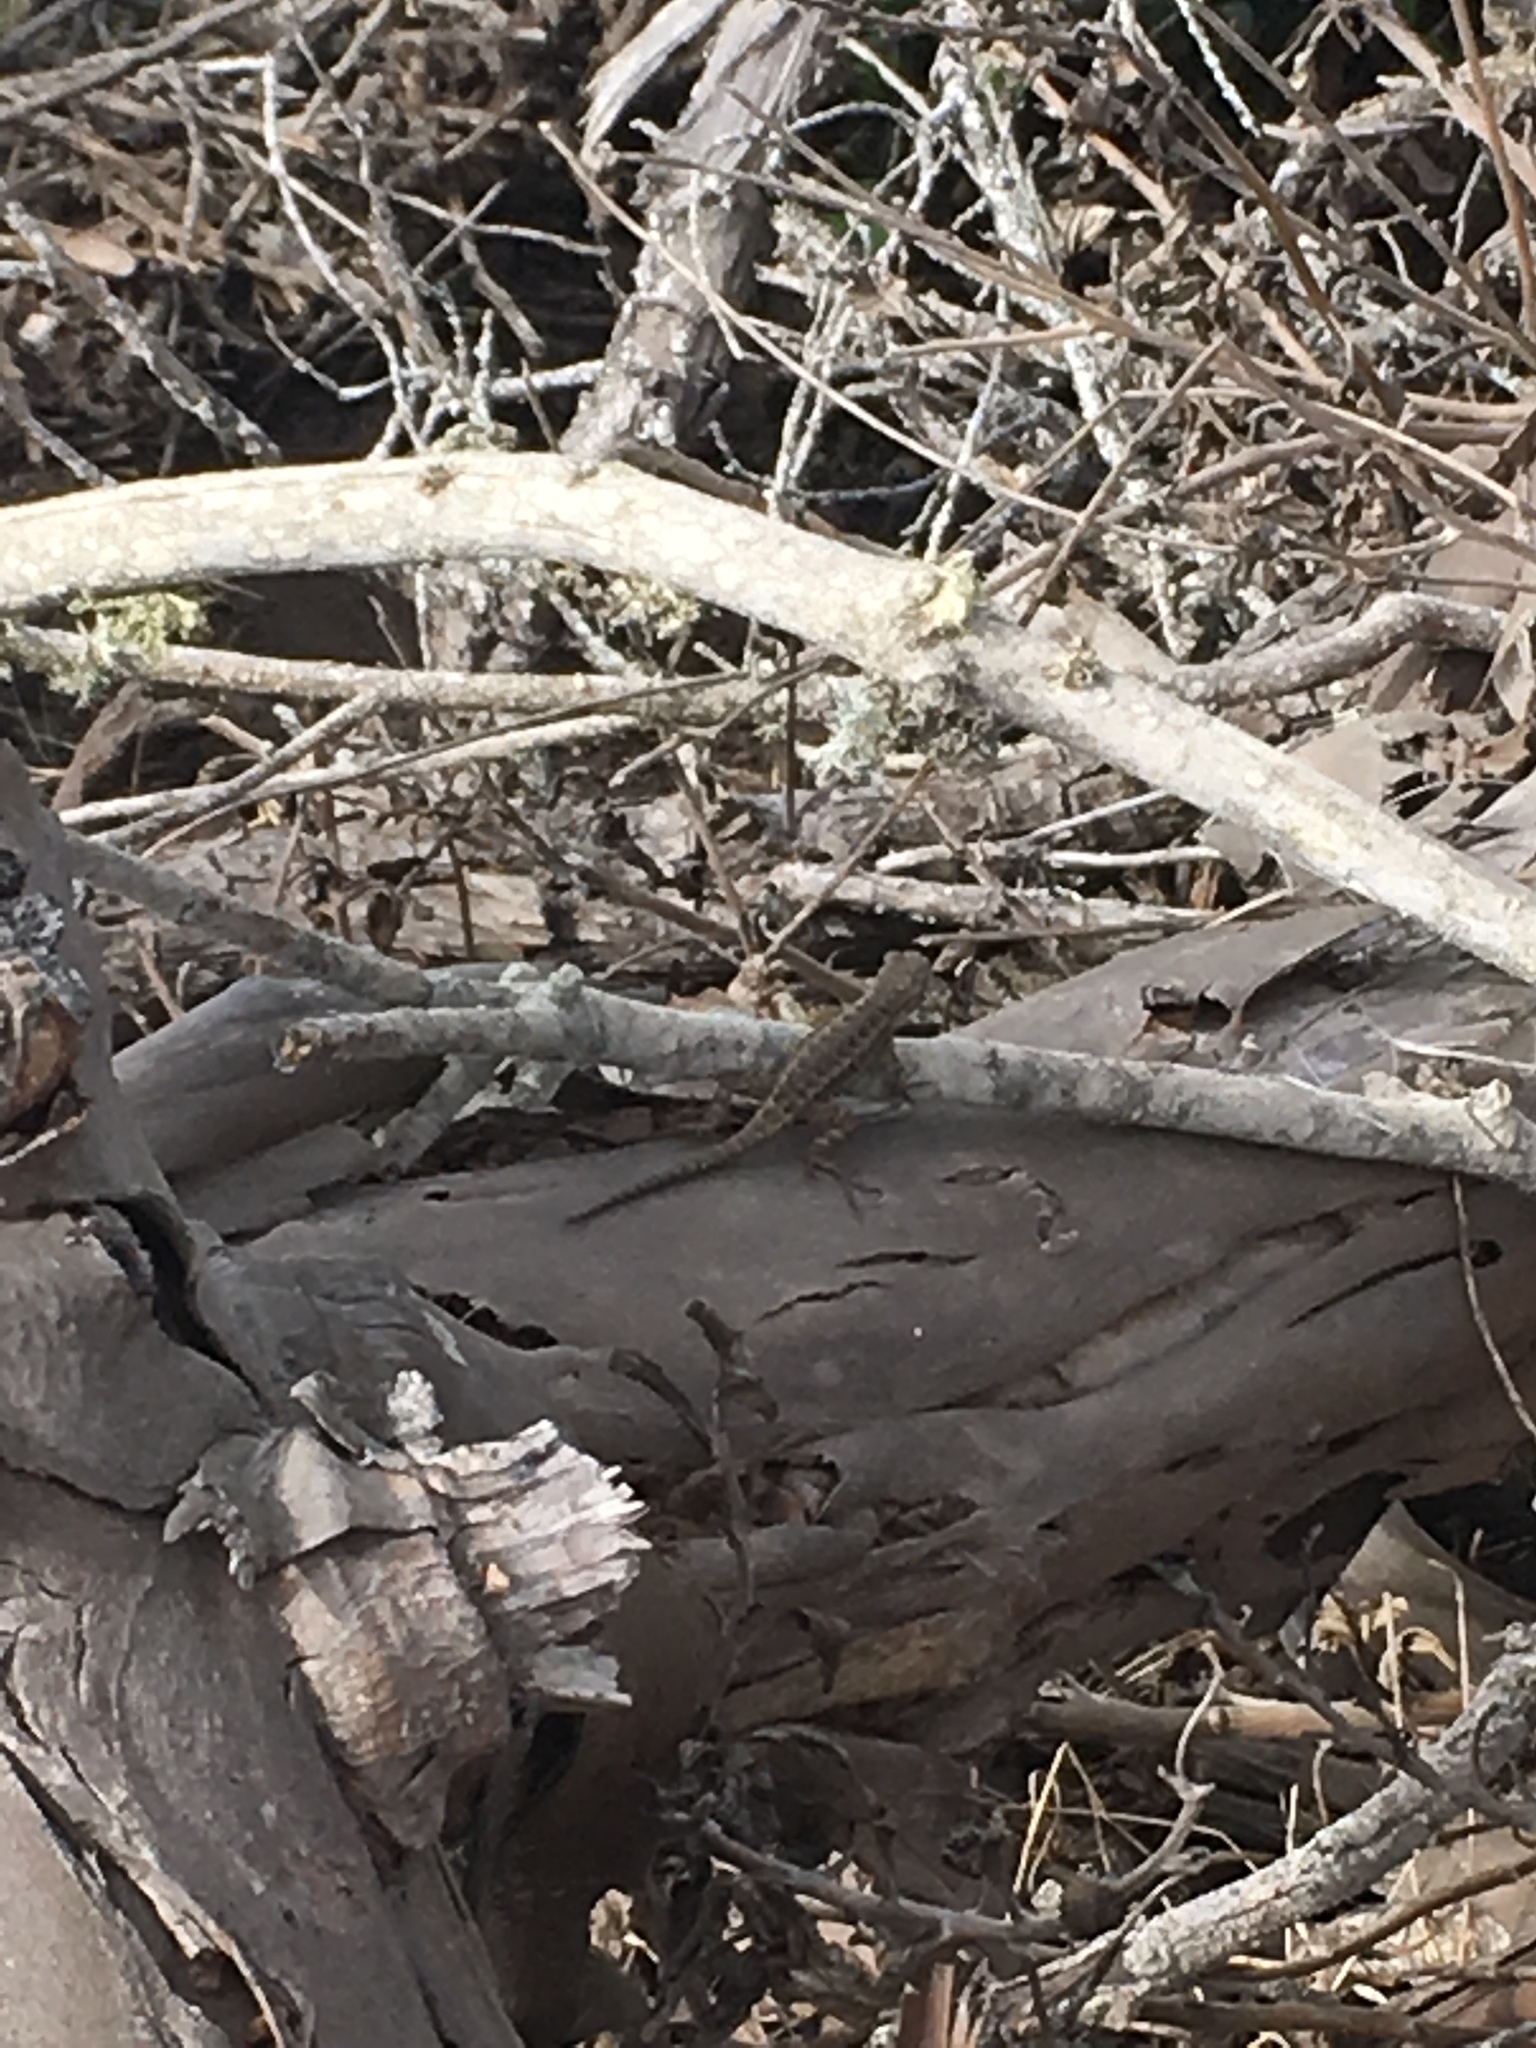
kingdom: Animalia
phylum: Chordata
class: Squamata
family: Phrynosomatidae
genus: Sceloporus
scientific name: Sceloporus occidentalis
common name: Western fence lizard
